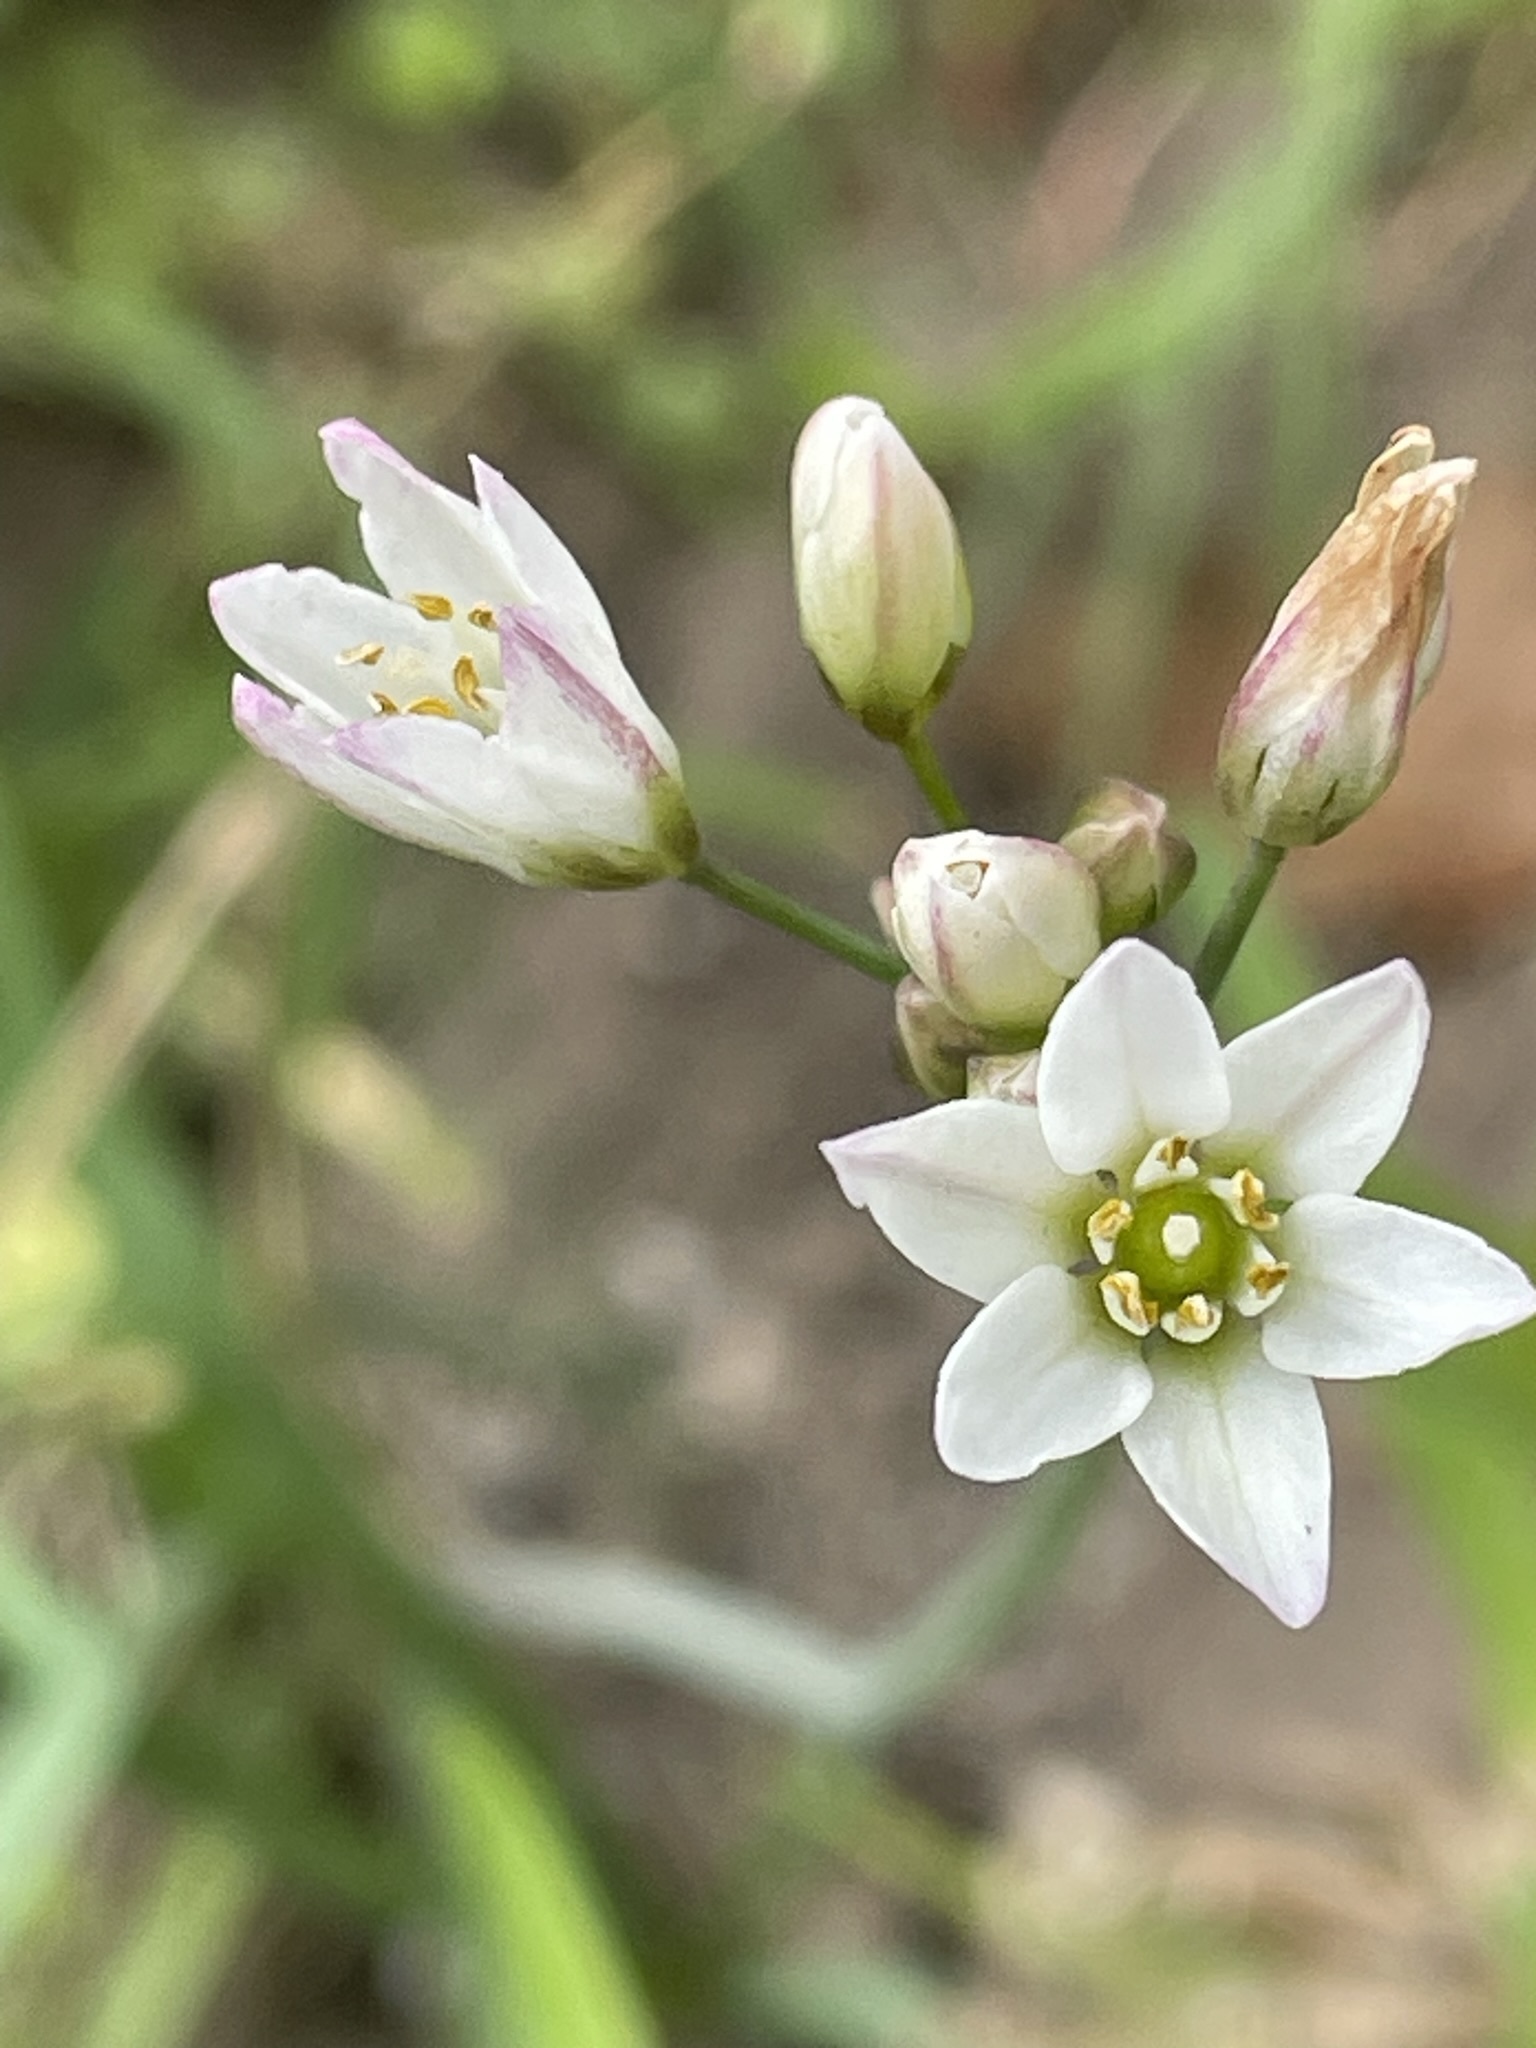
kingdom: Plantae
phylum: Tracheophyta
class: Liliopsida
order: Asparagales
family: Amaryllidaceae
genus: Nothoscordum
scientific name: Nothoscordum gracile
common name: Slender false garlic
